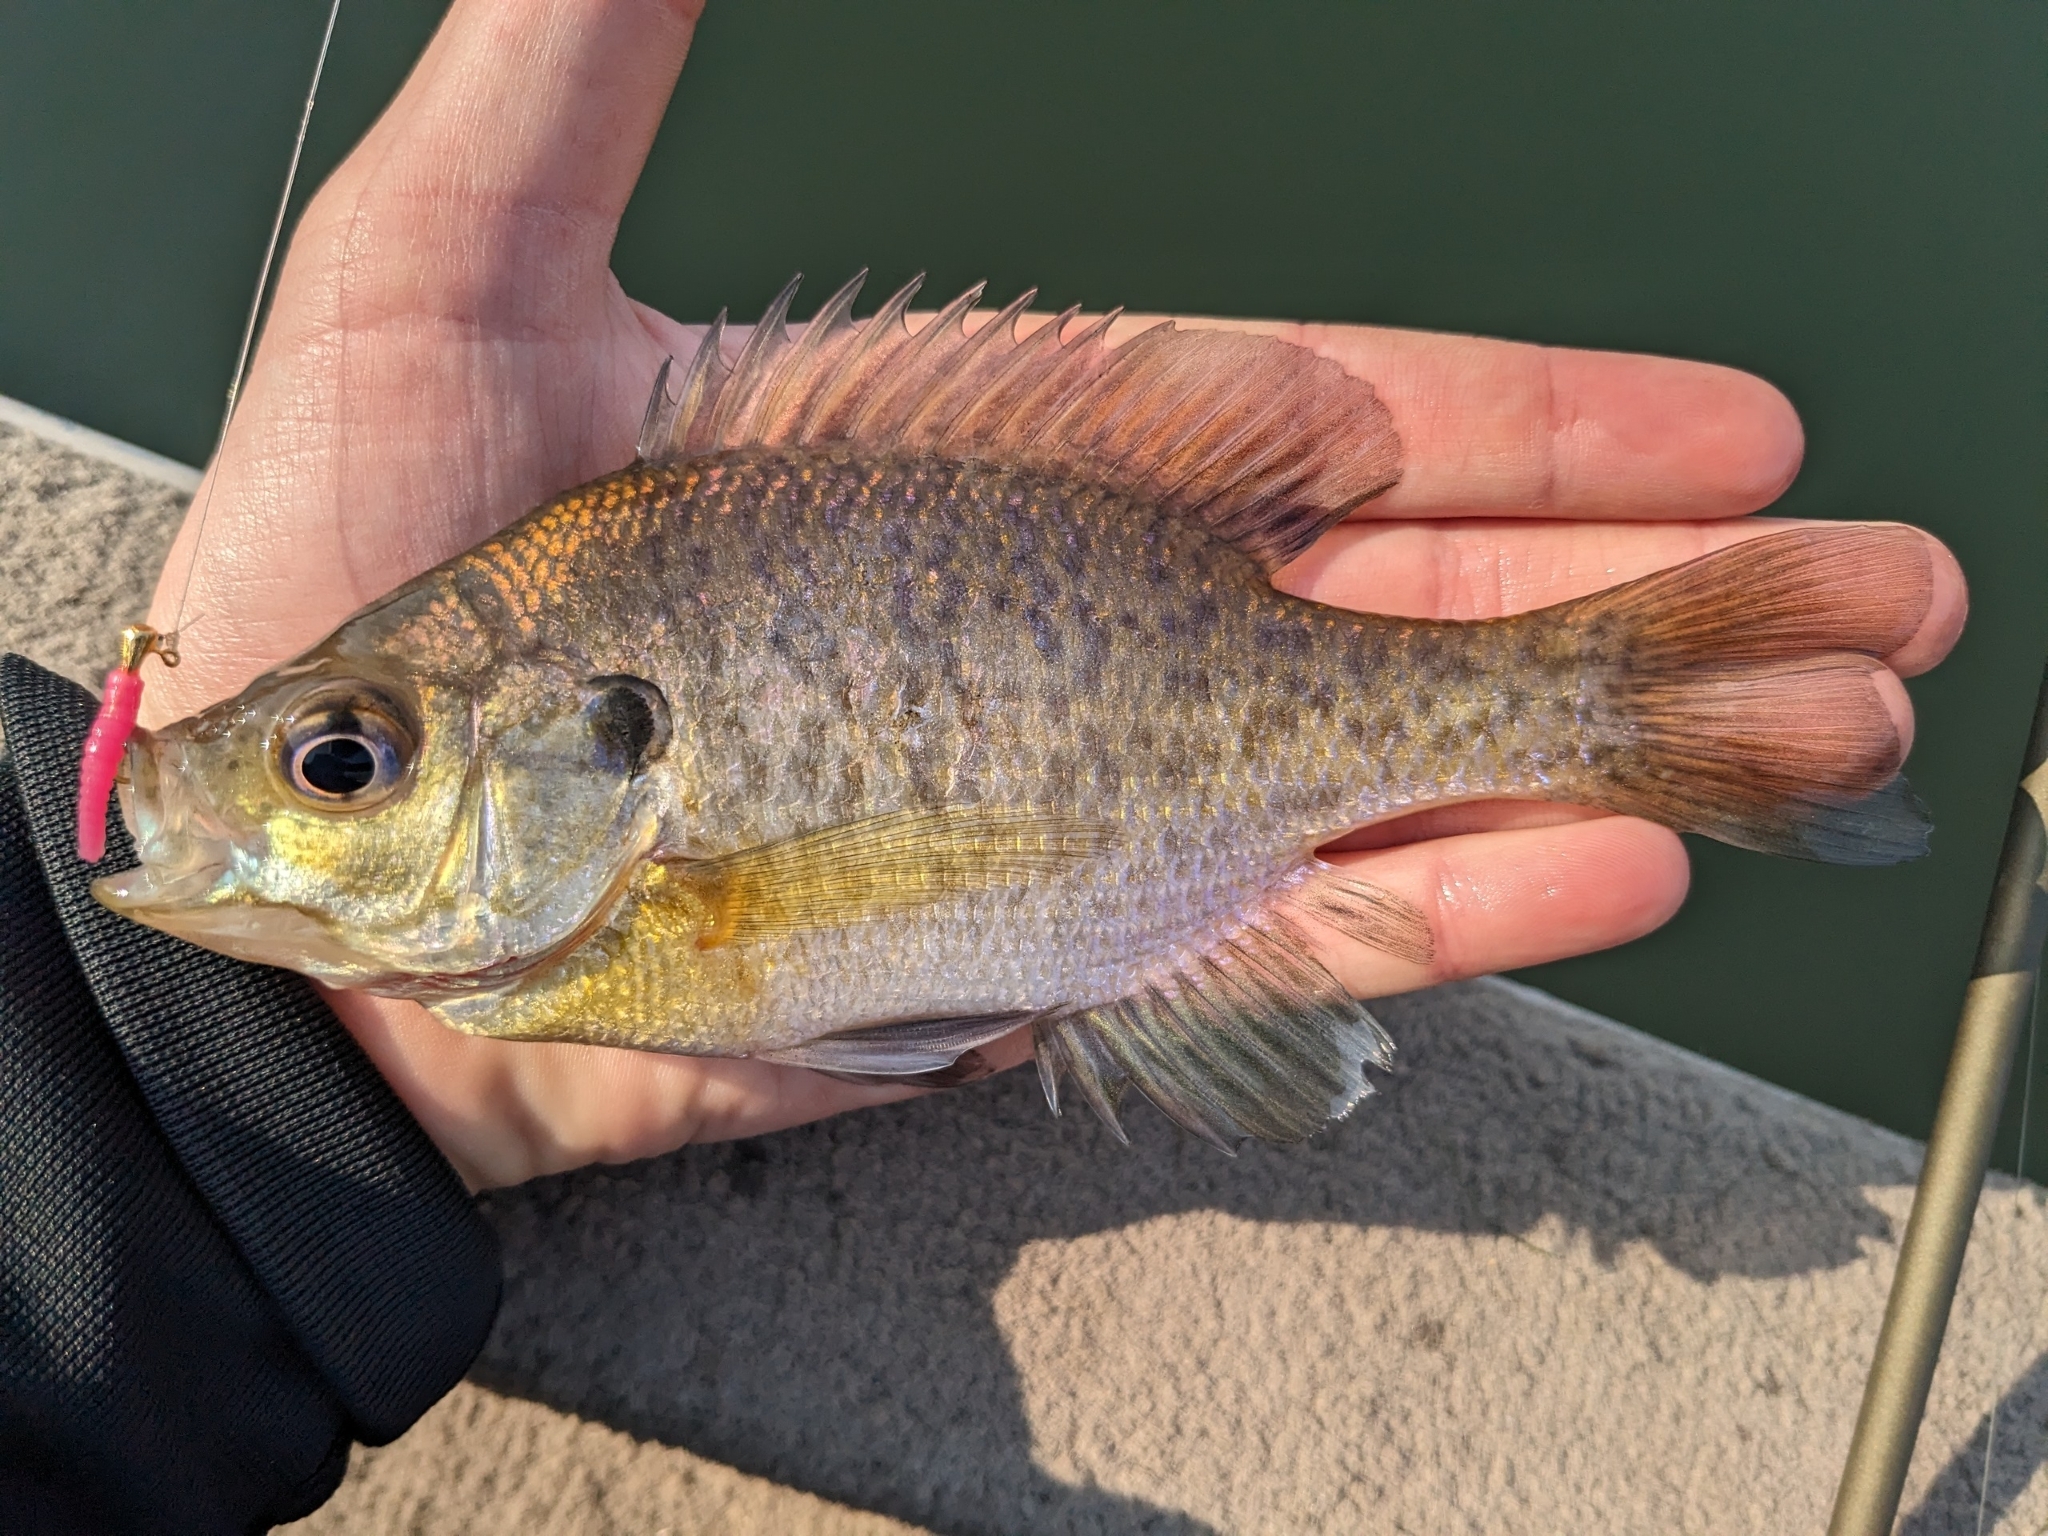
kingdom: Animalia
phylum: Chordata
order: Perciformes
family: Centrarchidae
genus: Lepomis
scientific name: Lepomis macrochirus
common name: Bluegill
